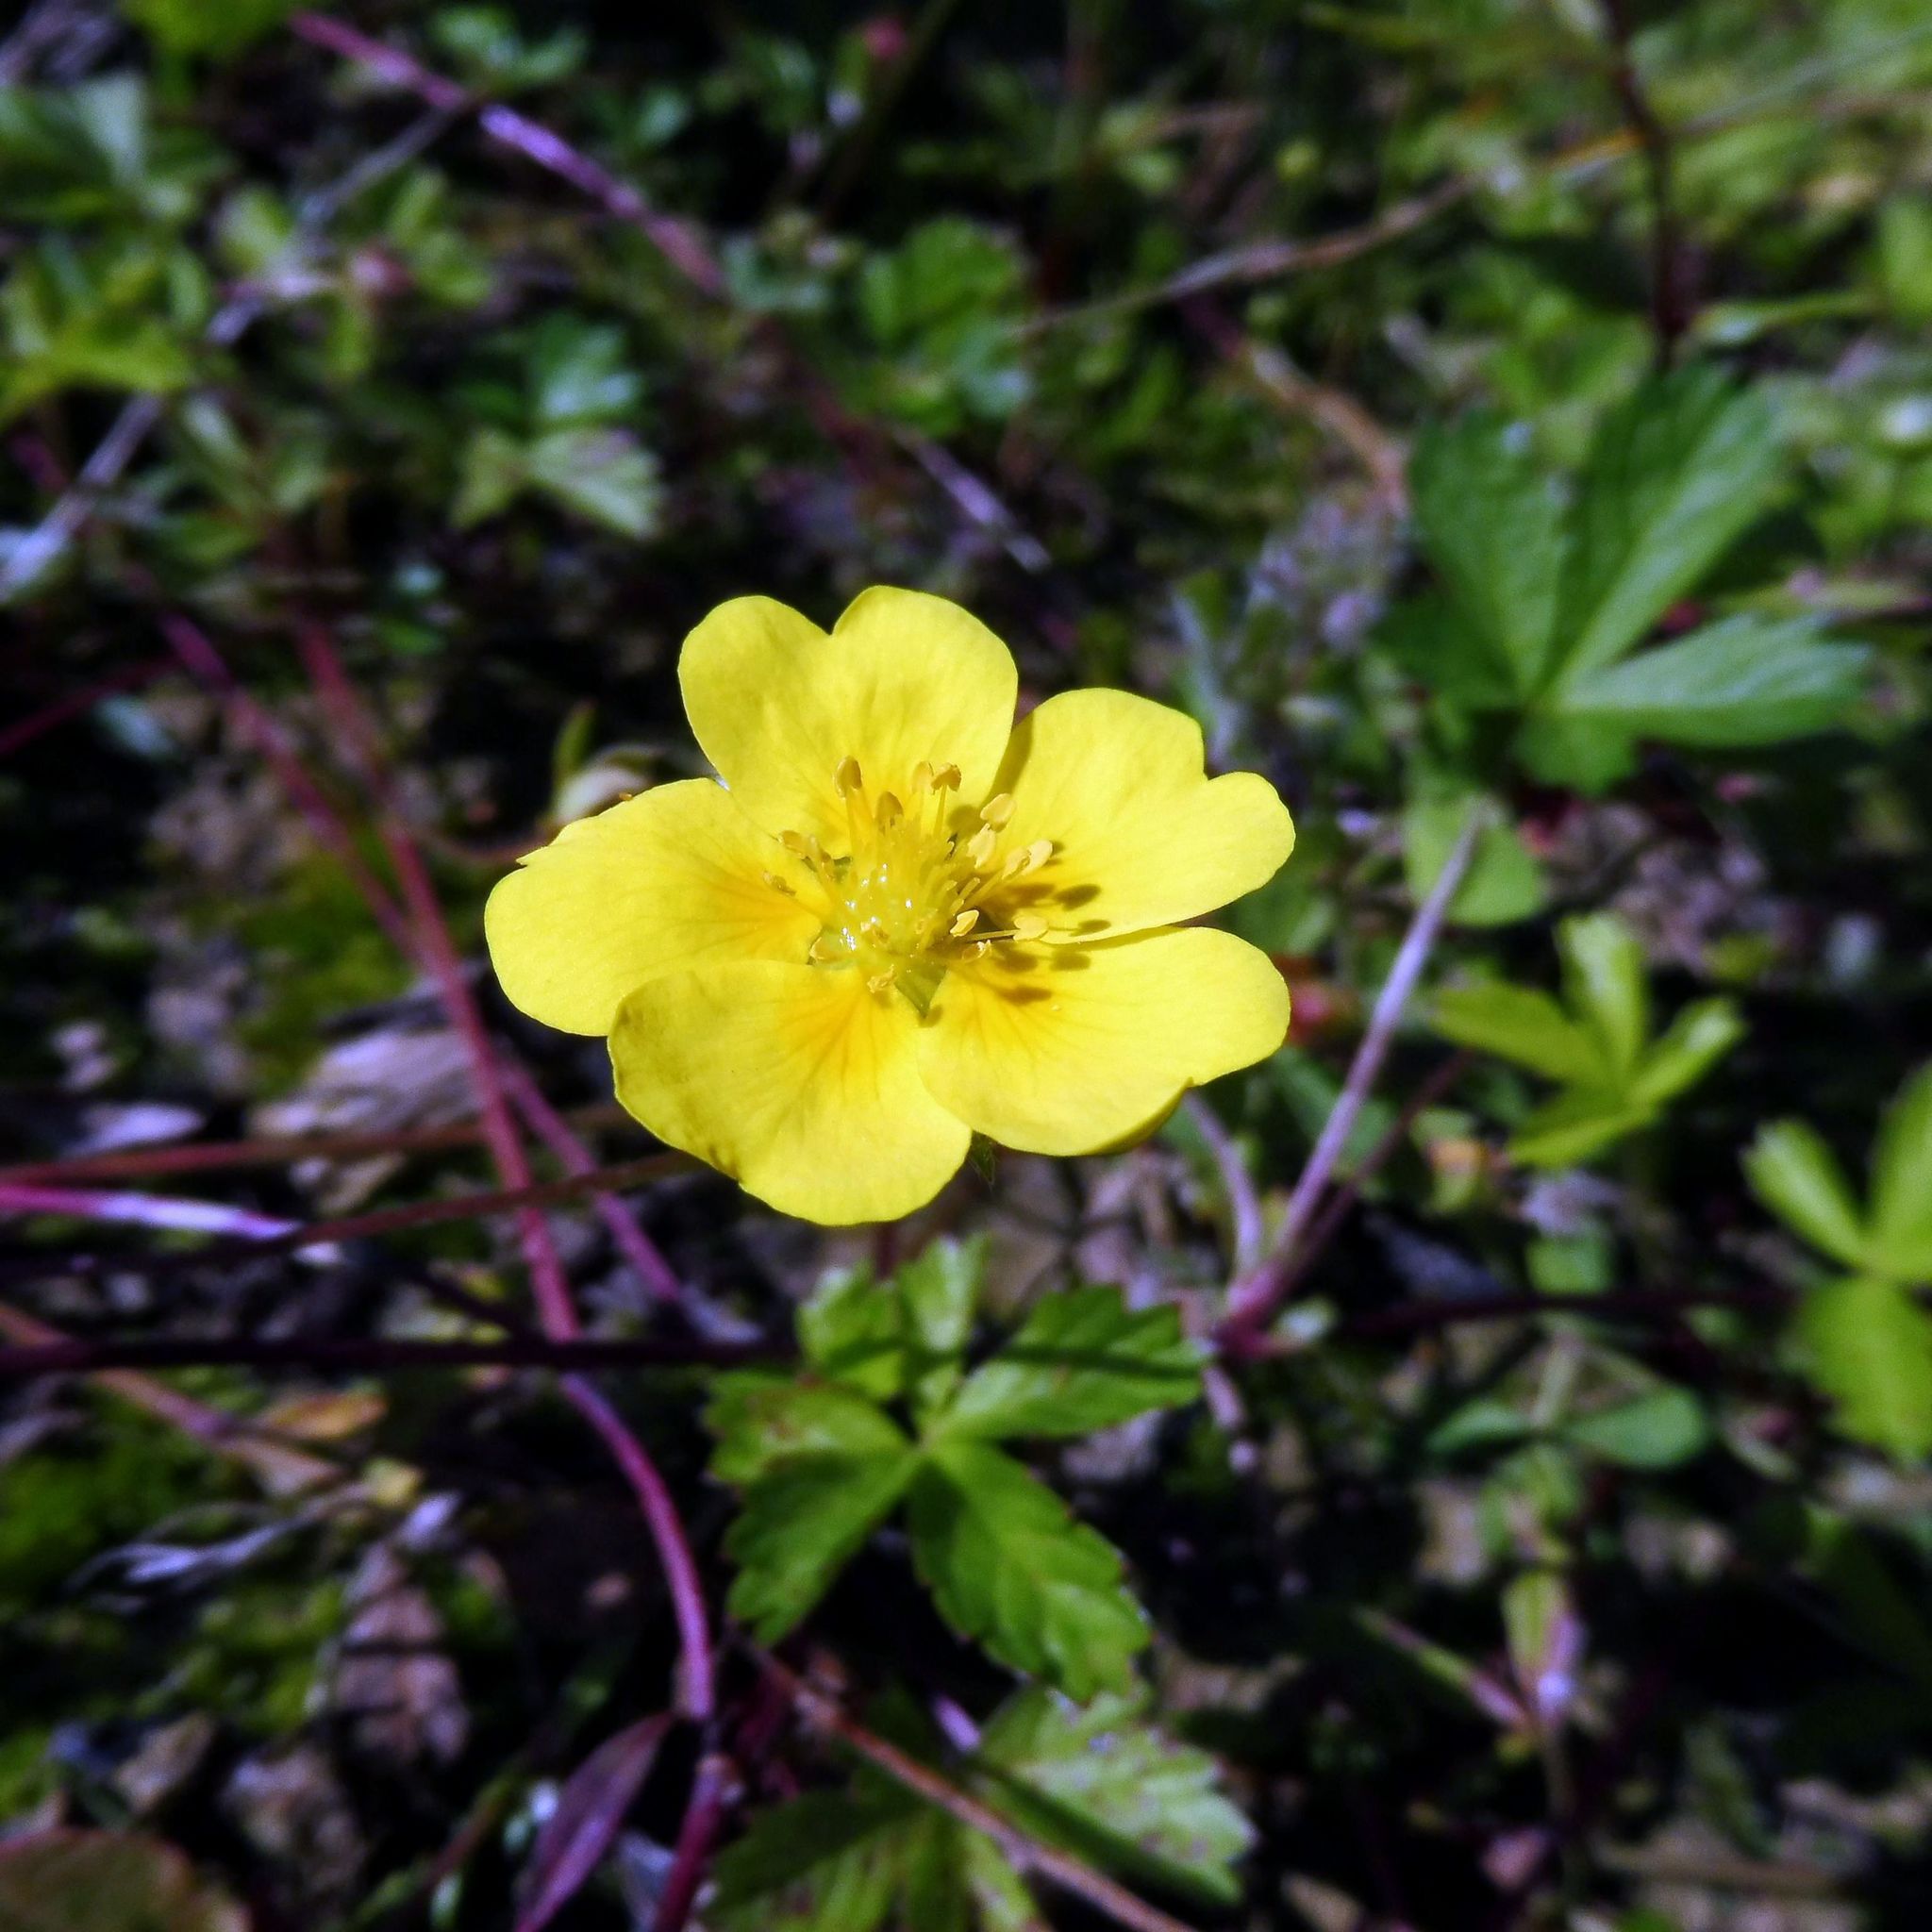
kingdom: Plantae
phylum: Tracheophyta
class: Magnoliopsida
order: Rosales
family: Rosaceae
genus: Potentilla
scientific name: Potentilla reptans
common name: Creeping cinquefoil
